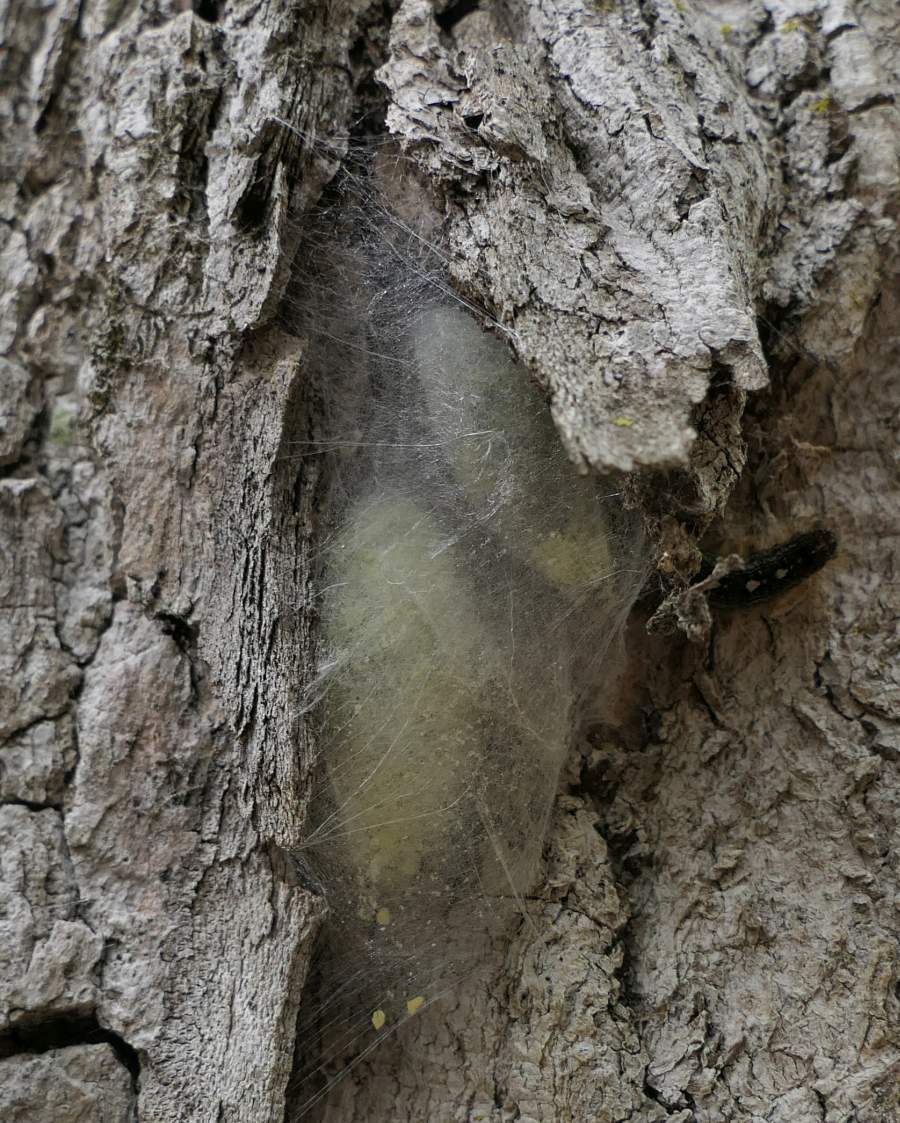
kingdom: Animalia
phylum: Arthropoda
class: Insecta
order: Lepidoptera
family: Lasiocampidae
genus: Malacosoma
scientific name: Malacosoma disstria
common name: Forest tent caterpillar
